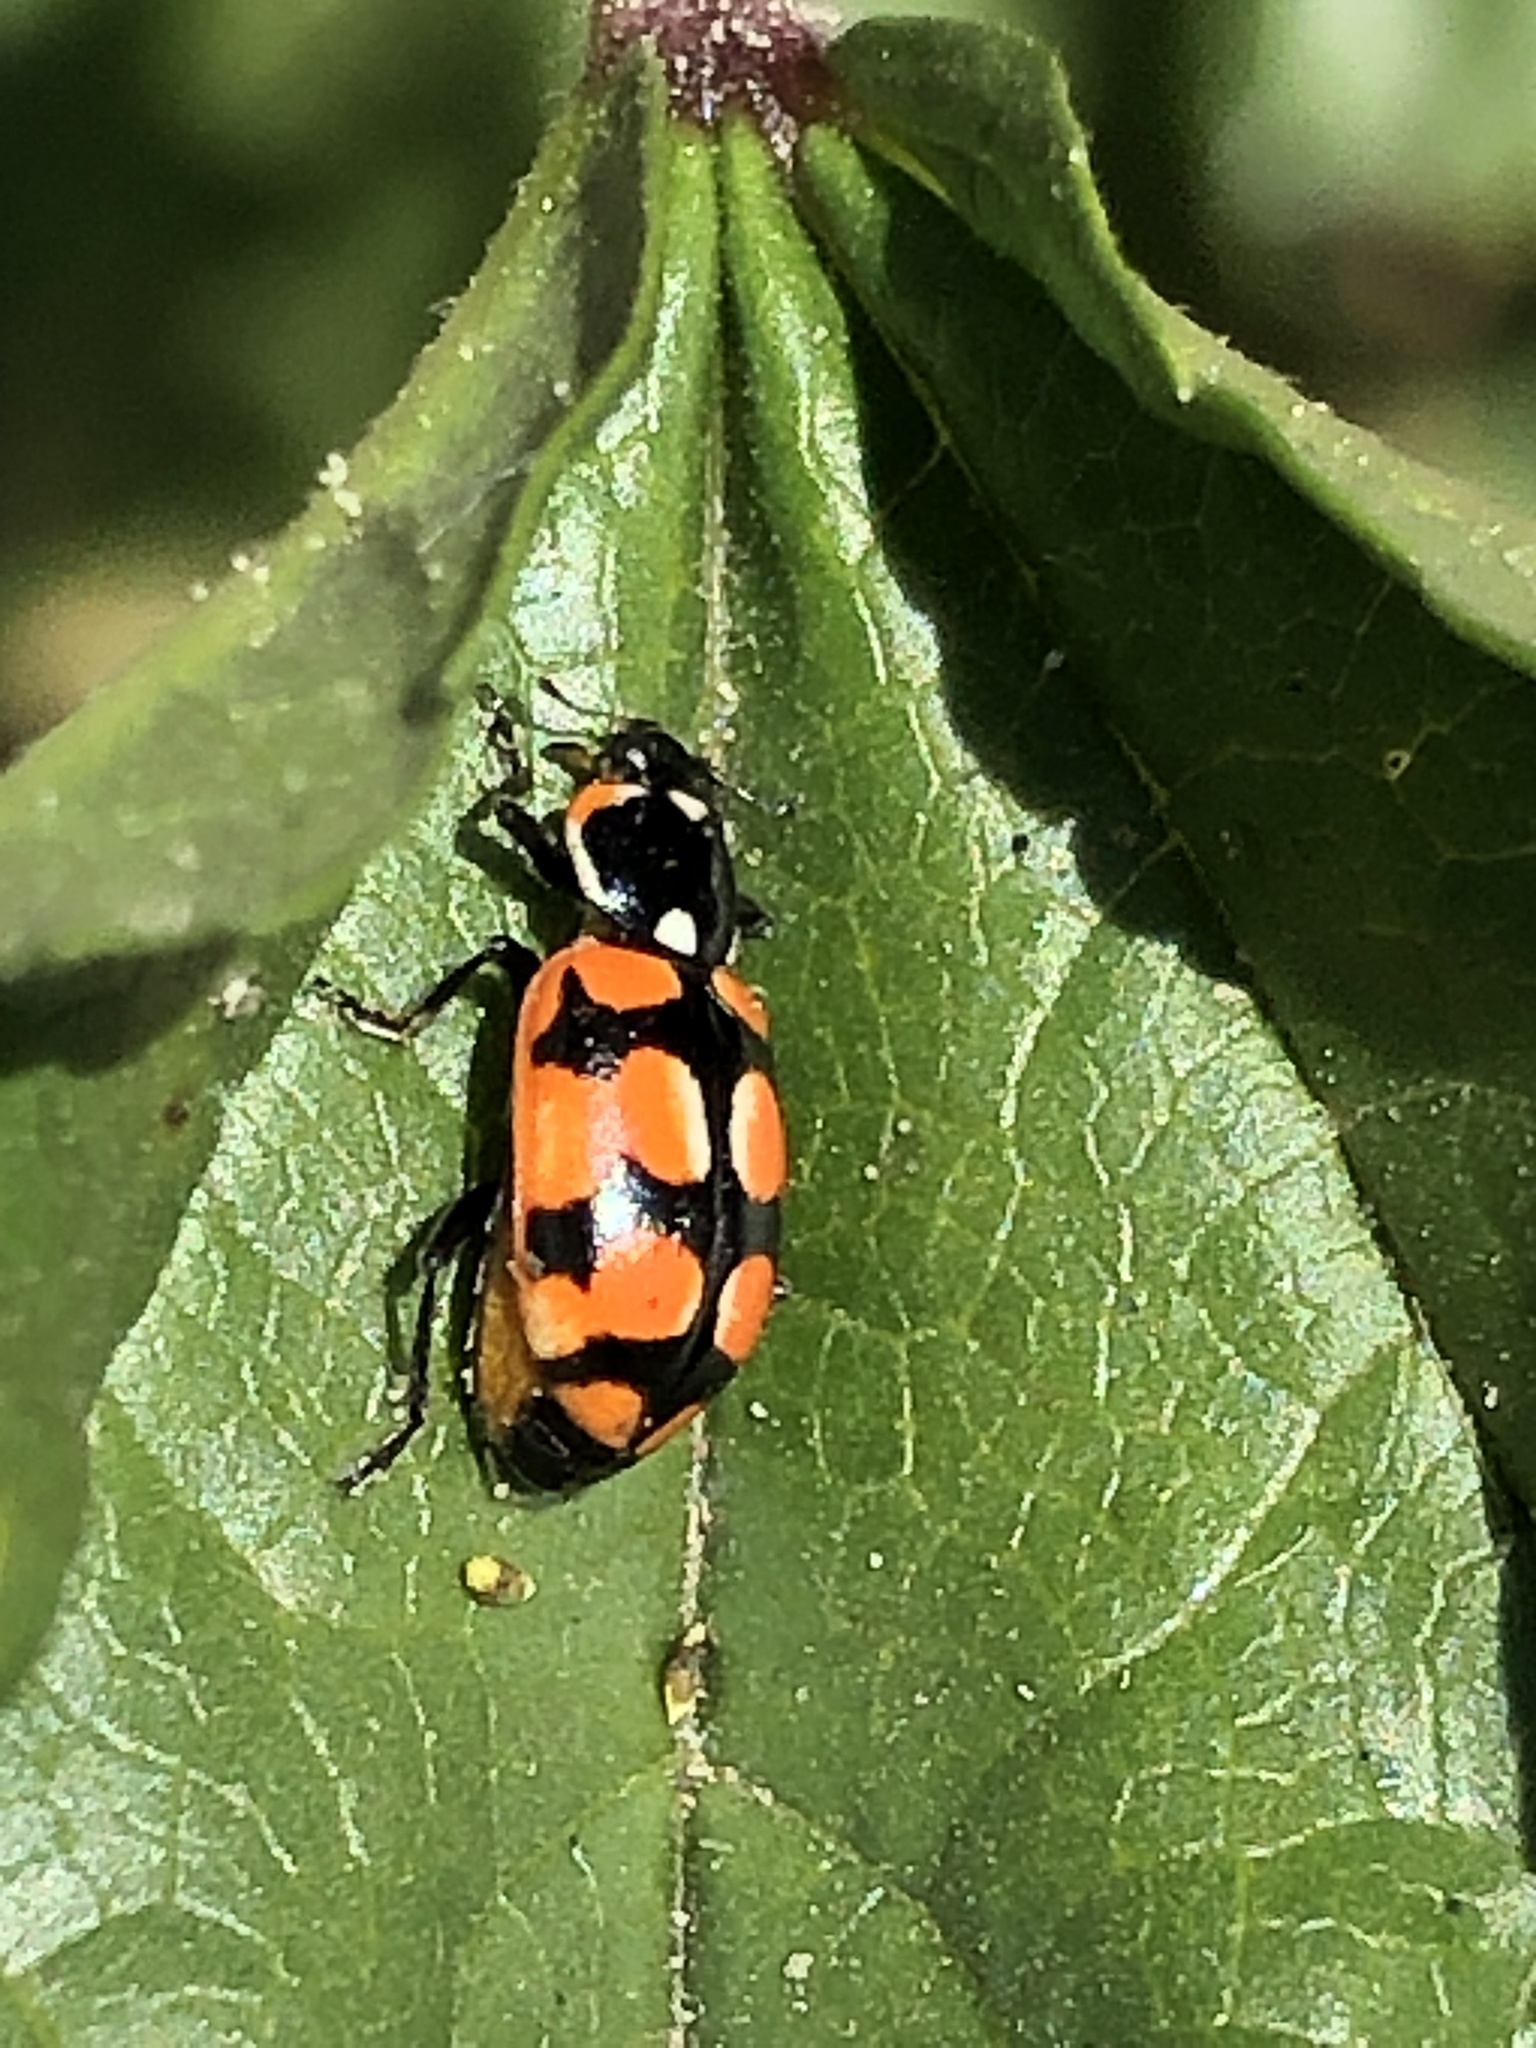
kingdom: Animalia
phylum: Arthropoda
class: Insecta
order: Coleoptera
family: Coccinellidae
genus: Eriopis
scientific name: Eriopis chilensis
